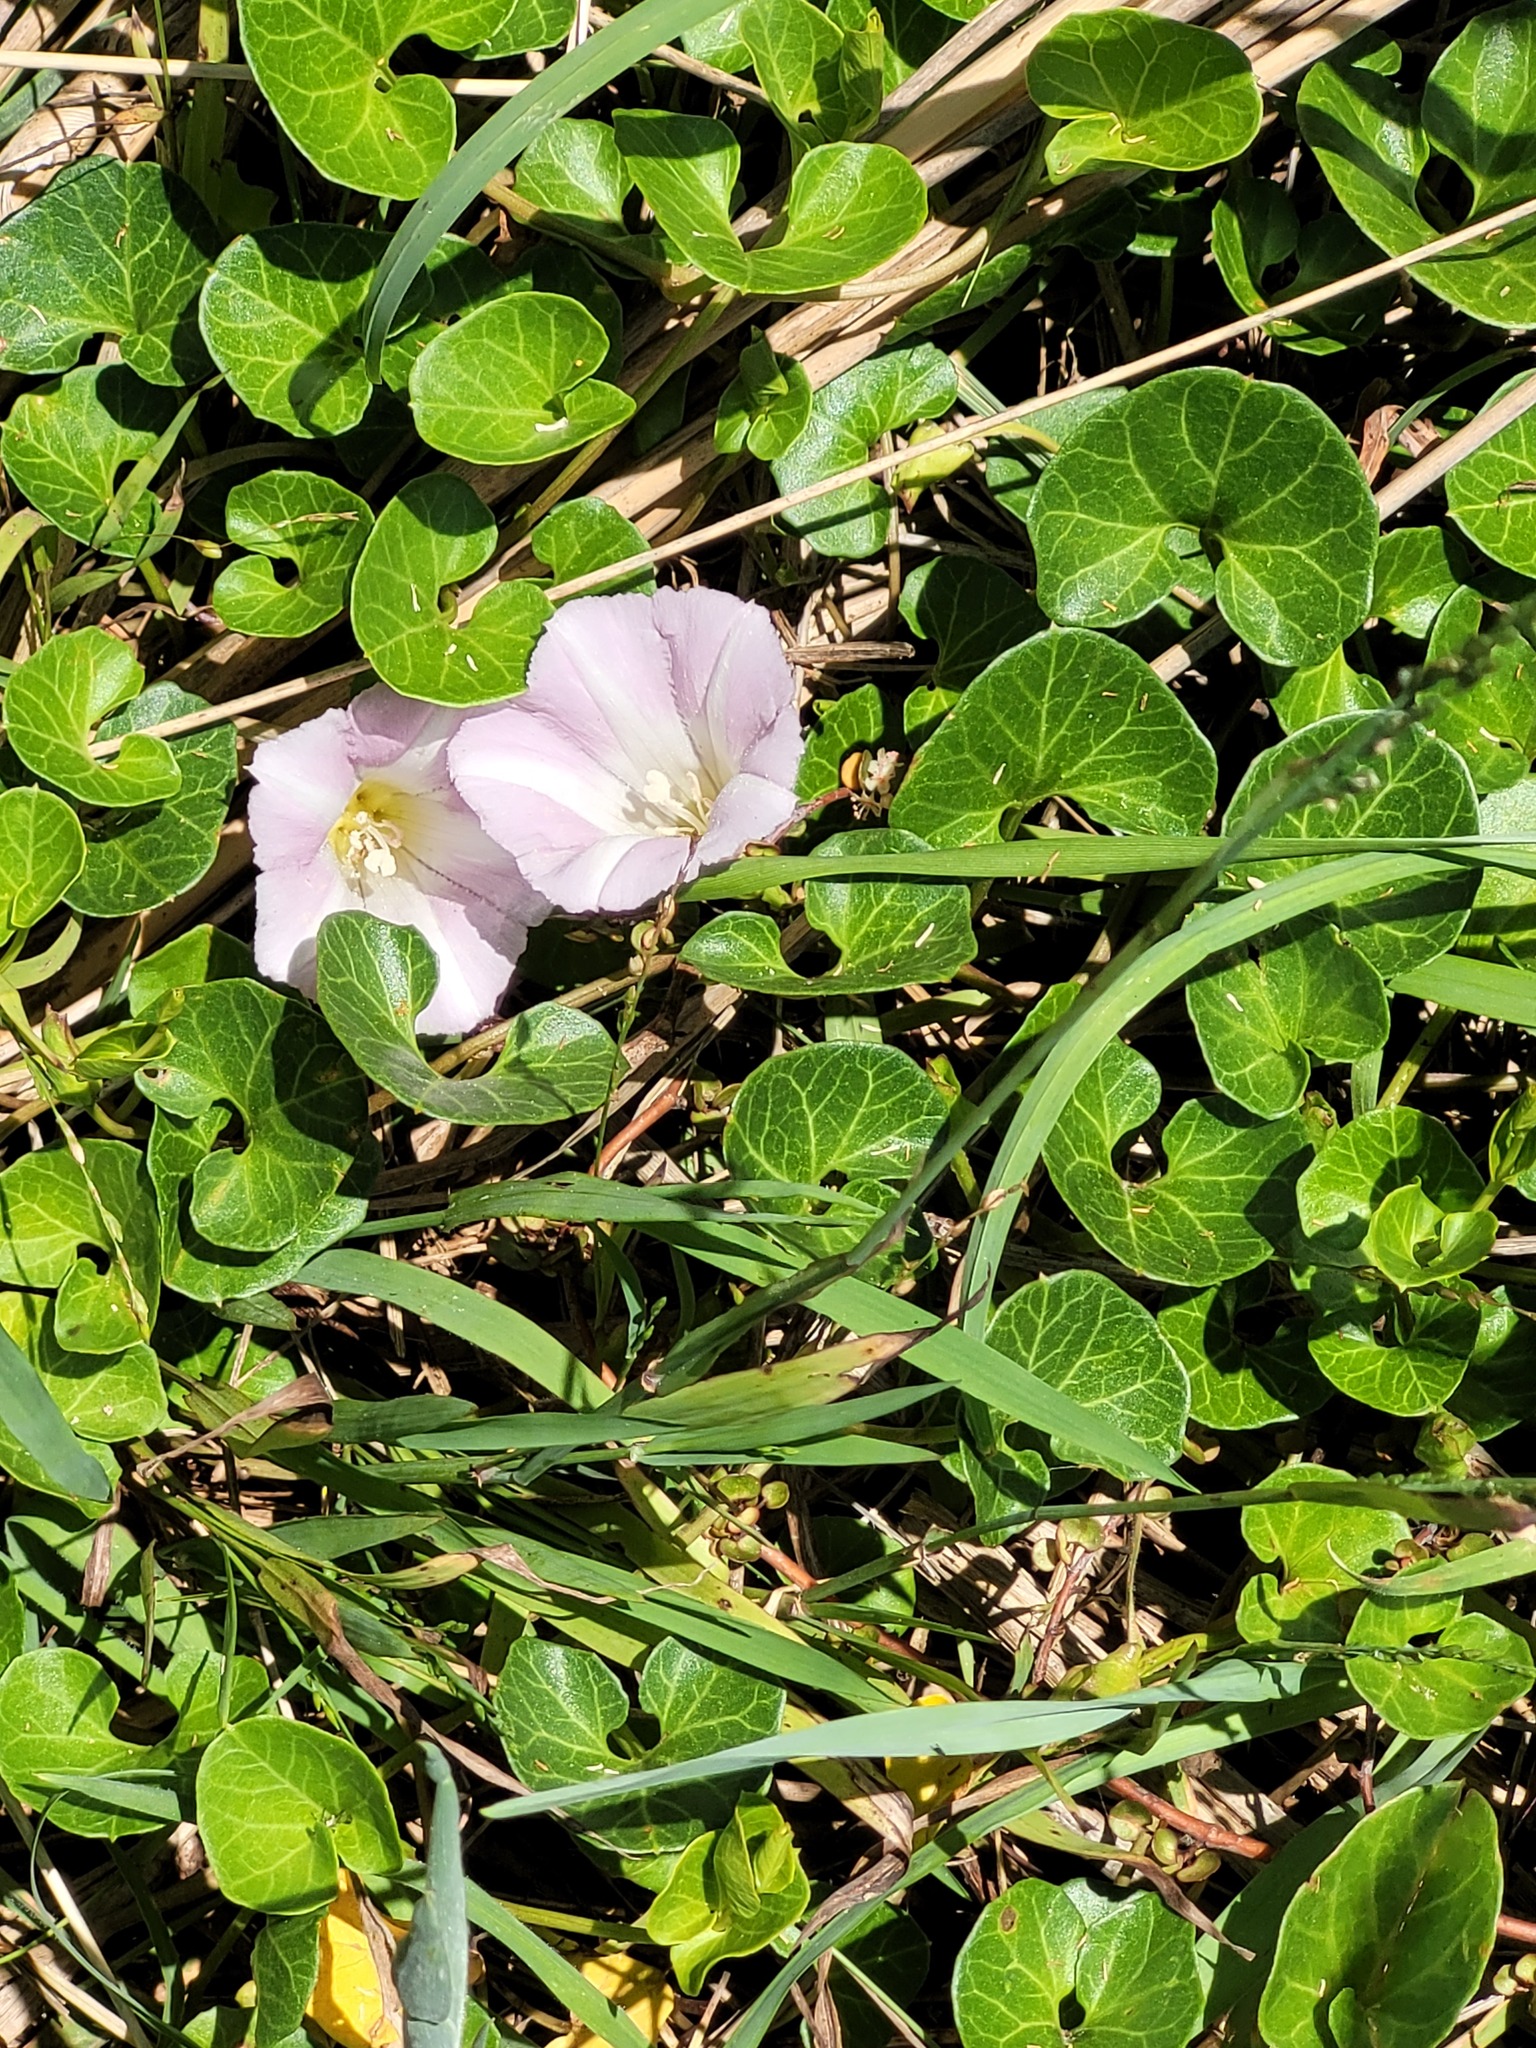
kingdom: Plantae
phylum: Tracheophyta
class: Magnoliopsida
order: Solanales
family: Convolvulaceae
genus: Calystegia
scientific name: Calystegia soldanella
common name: Sea bindweed
